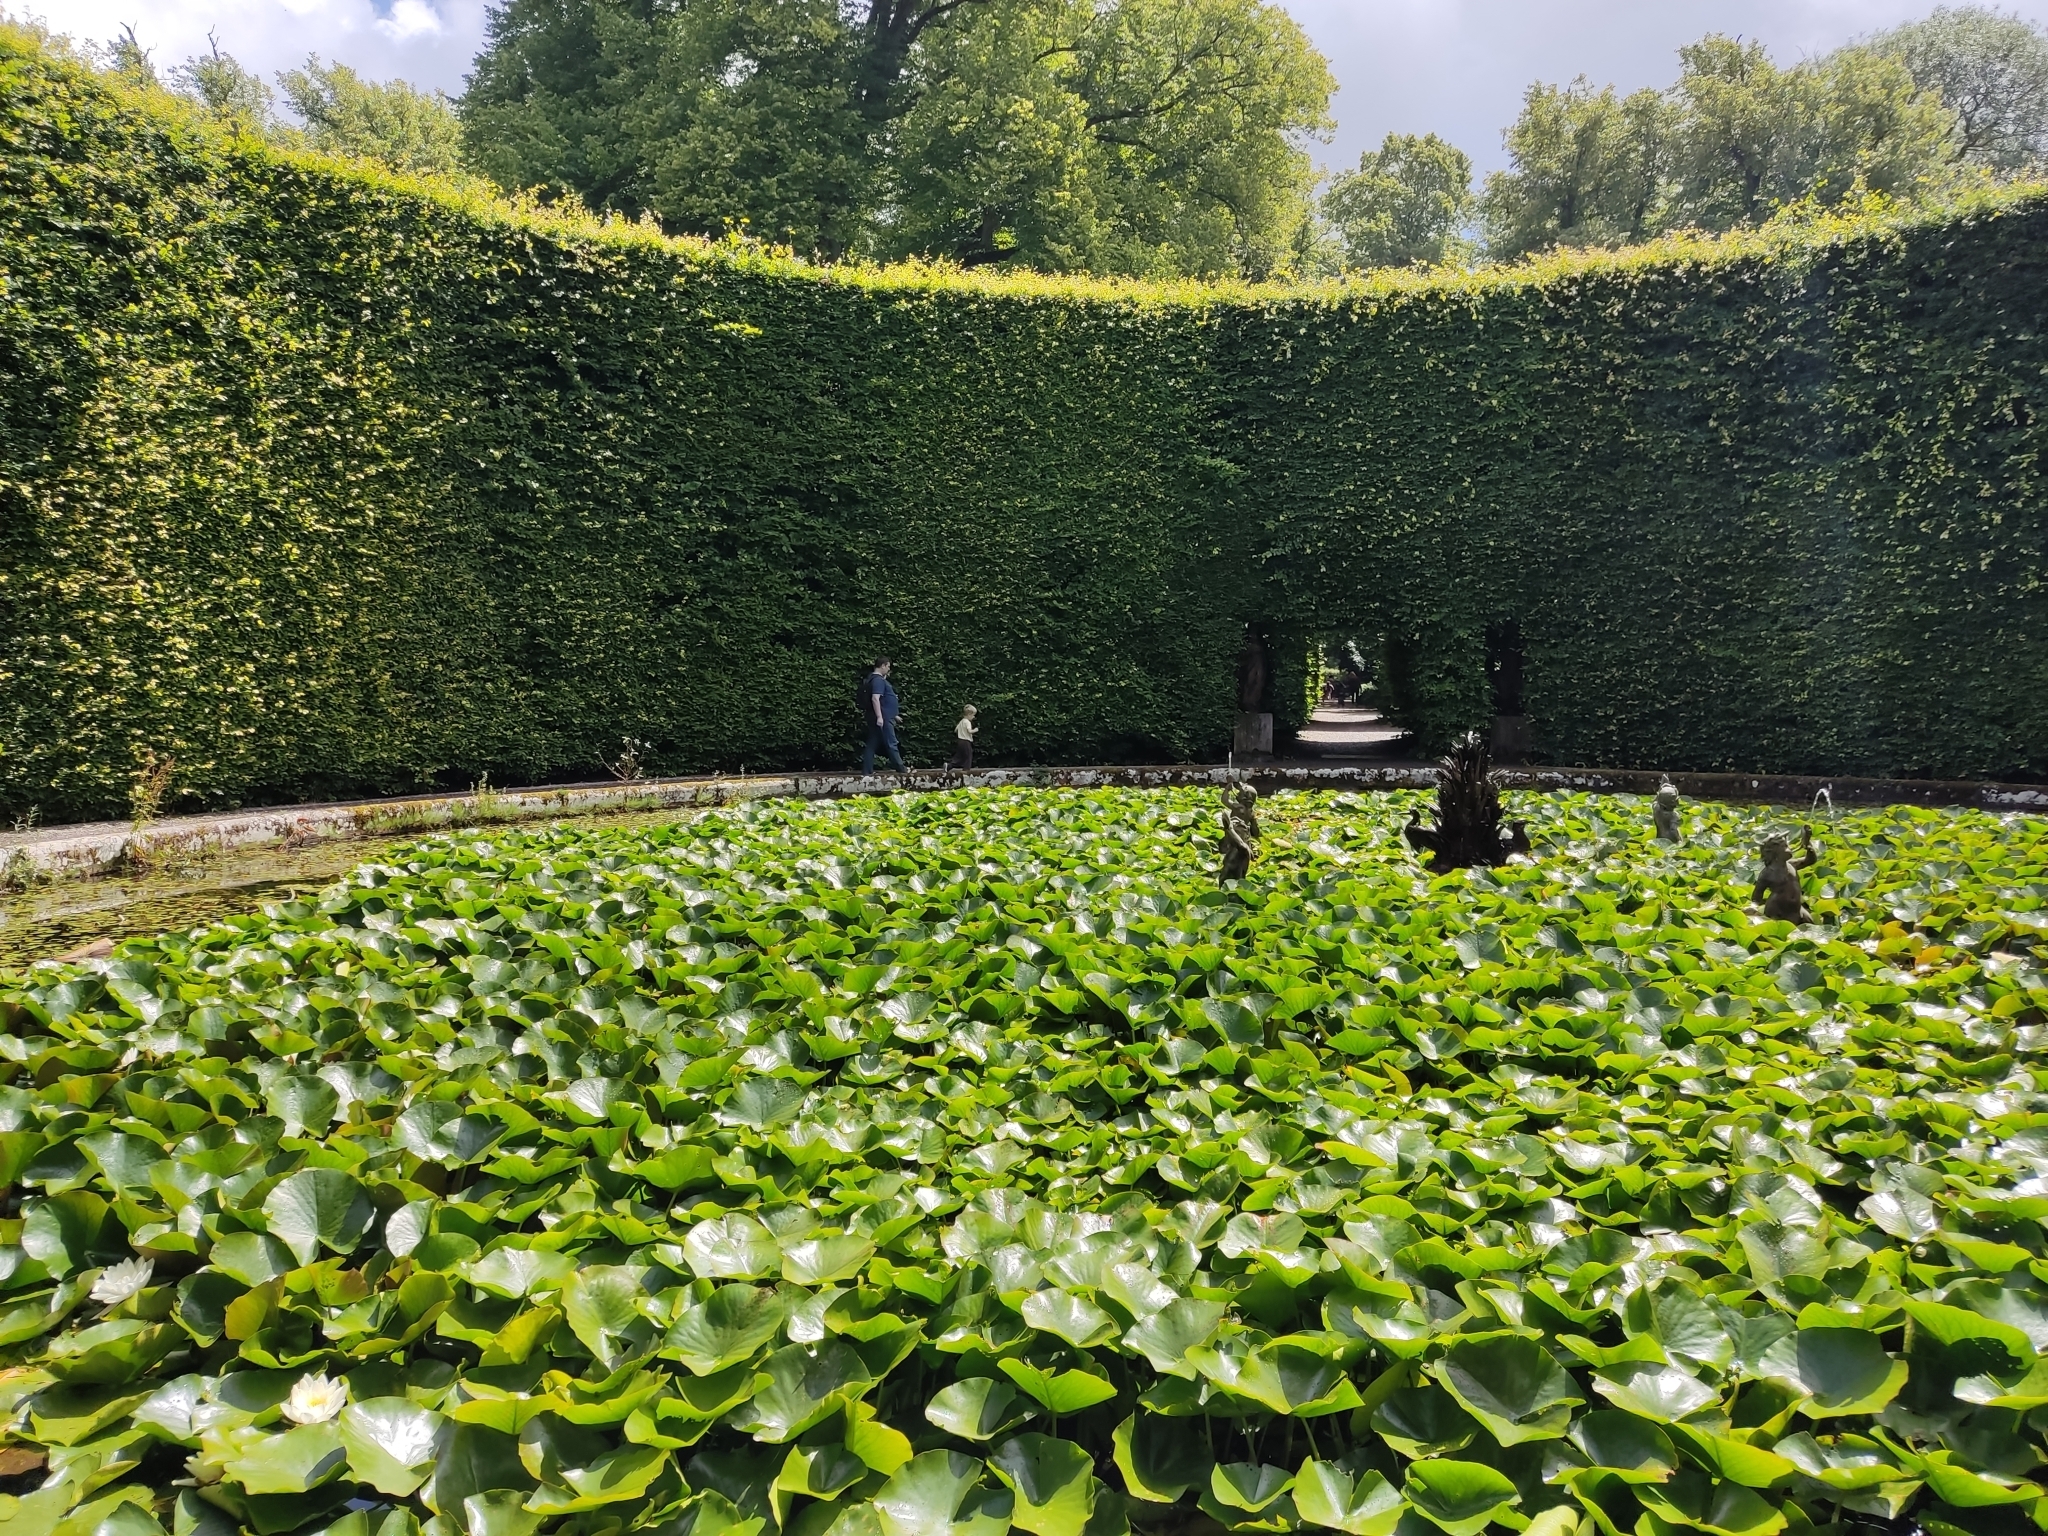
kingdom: Plantae
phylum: Tracheophyta
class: Magnoliopsida
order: Nymphaeales
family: Nymphaeaceae
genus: Nymphaea
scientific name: Nymphaea alba
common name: White water-lily
